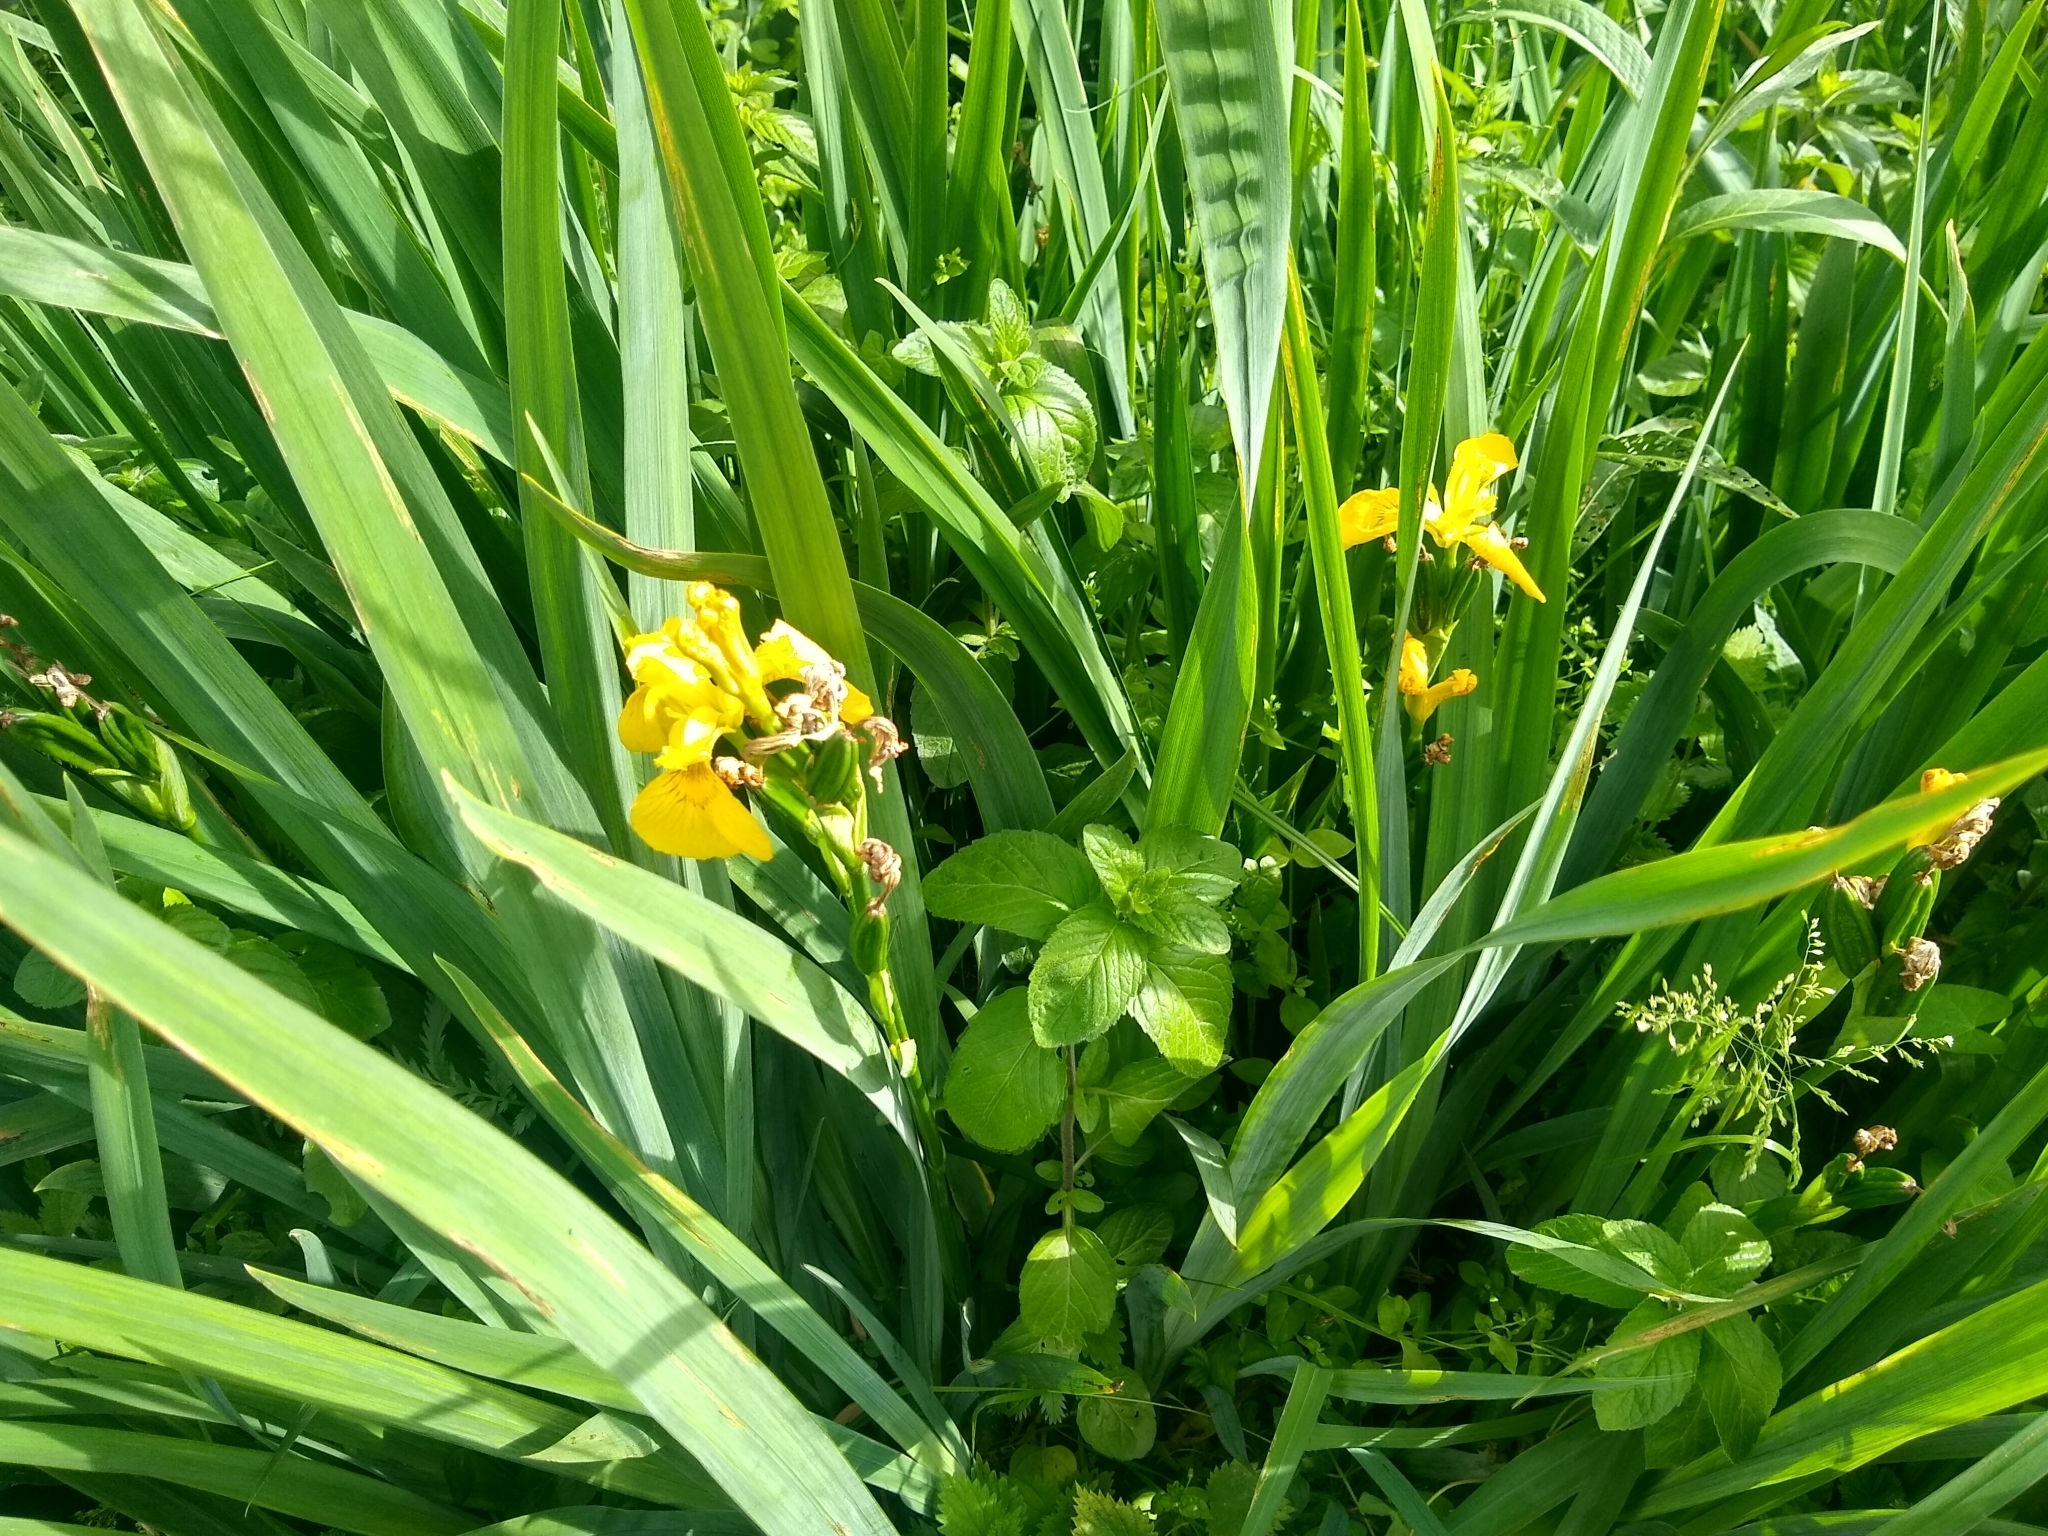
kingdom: Plantae
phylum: Tracheophyta
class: Liliopsida
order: Asparagales
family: Iridaceae
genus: Iris
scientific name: Iris pseudacorus
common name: Yellow flag
